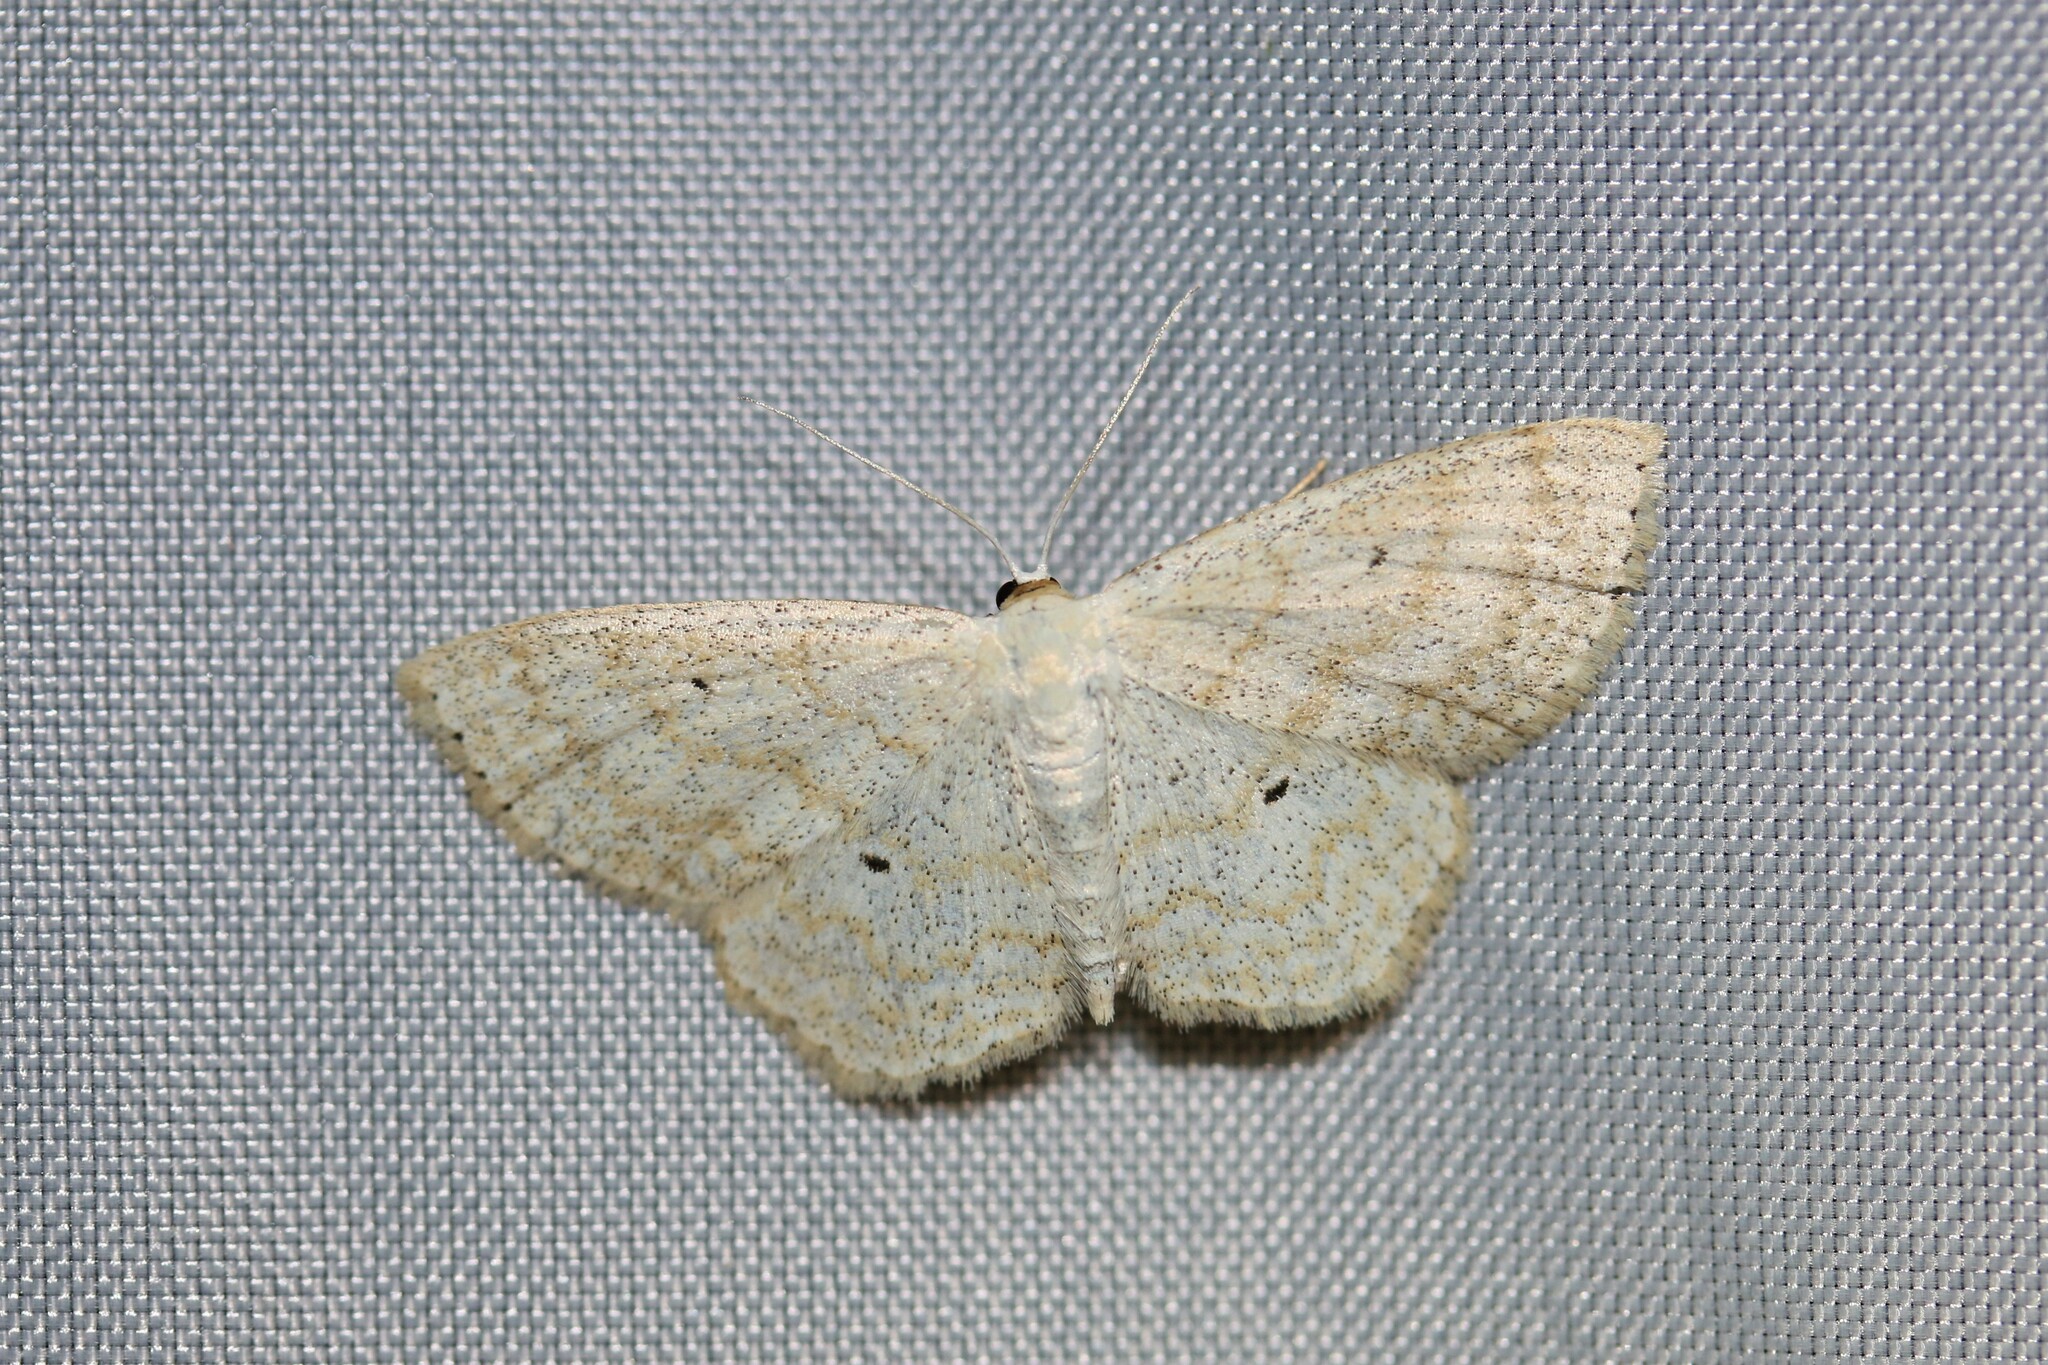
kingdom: Animalia
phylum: Arthropoda
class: Insecta
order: Lepidoptera
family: Geometridae
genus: Scopula
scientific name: Scopula immutata
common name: Lesser cream wave
